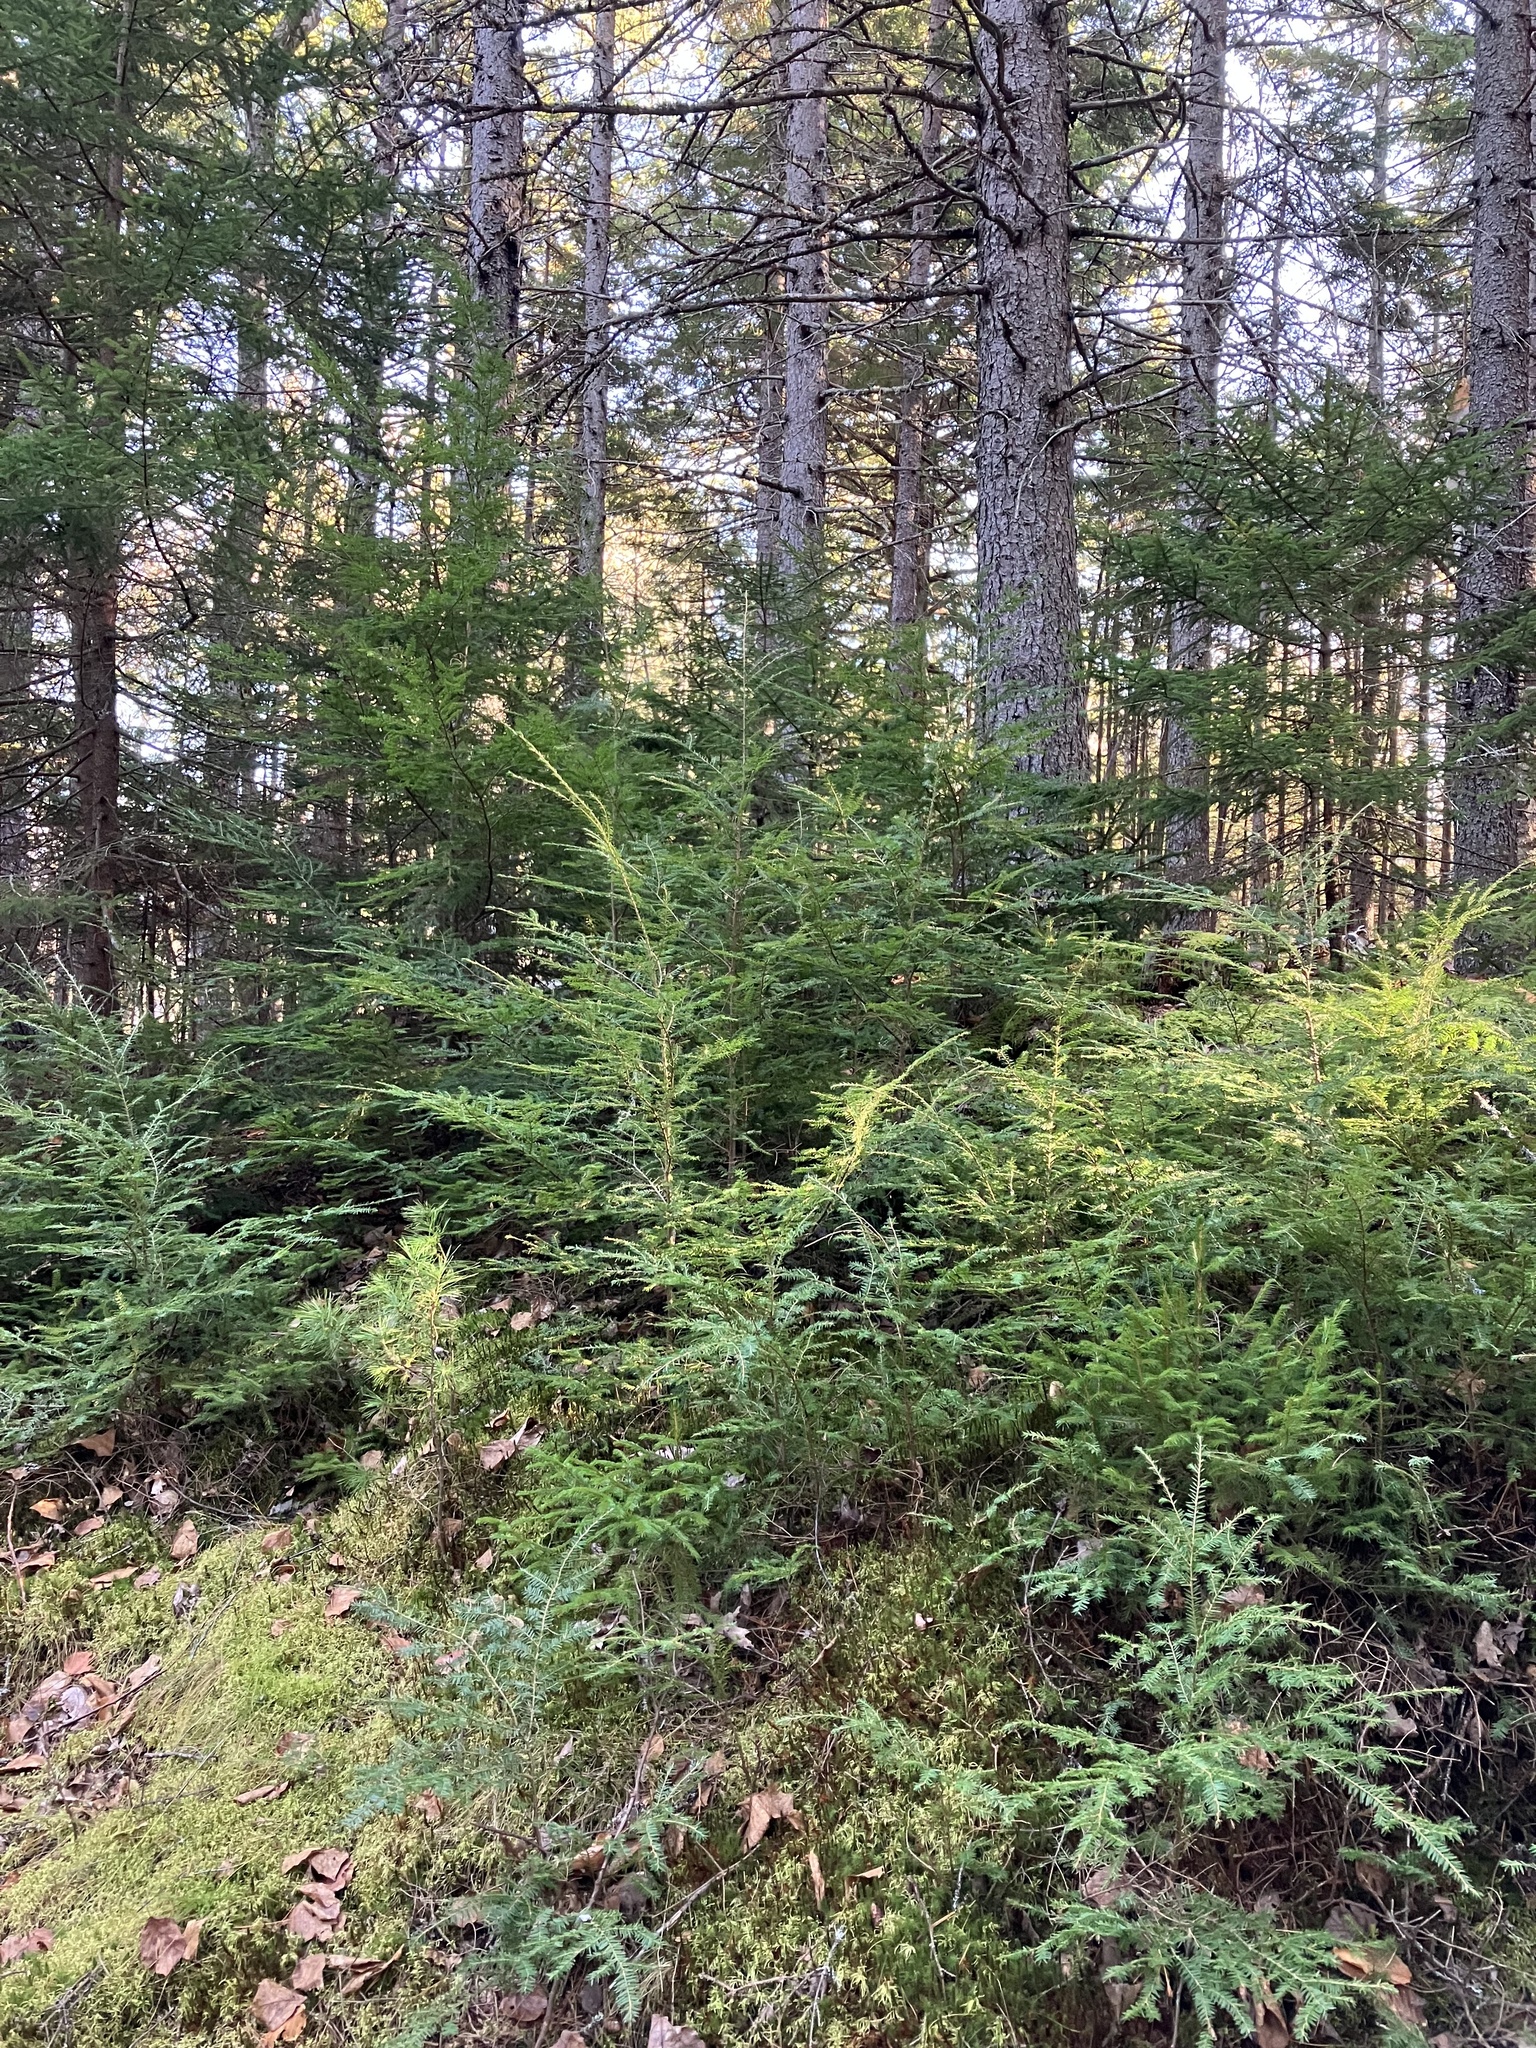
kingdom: Plantae
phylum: Tracheophyta
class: Pinopsida
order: Pinales
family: Pinaceae
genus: Tsuga
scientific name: Tsuga canadensis
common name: Eastern hemlock
